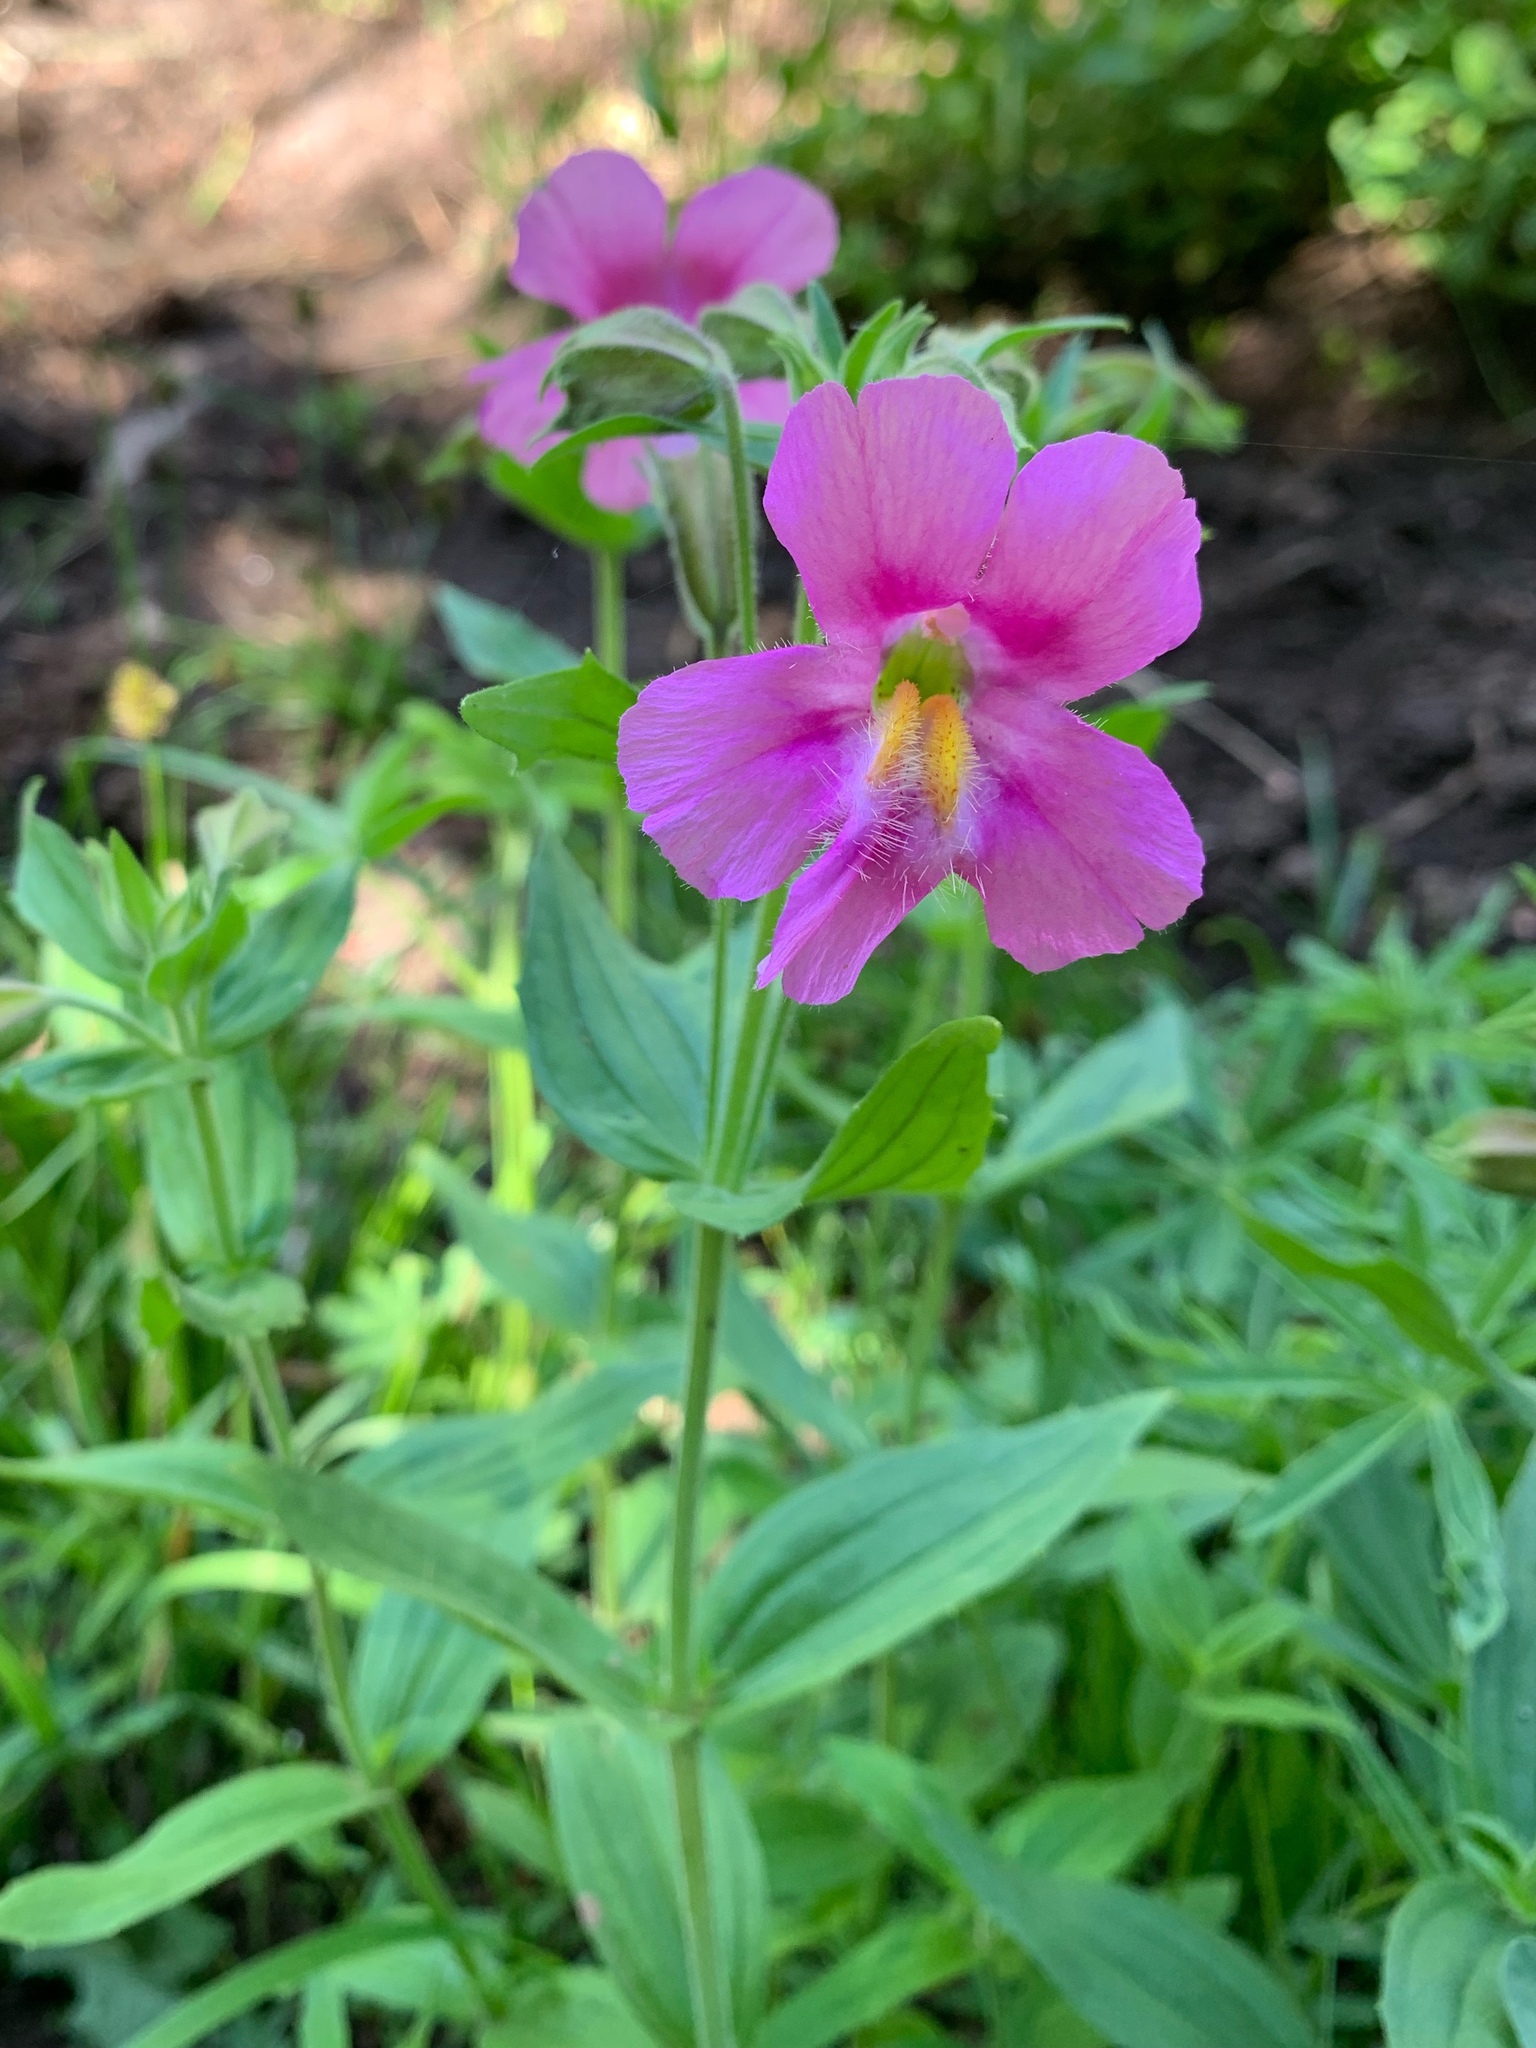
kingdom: Plantae
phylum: Tracheophyta
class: Magnoliopsida
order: Lamiales
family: Phrymaceae
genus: Erythranthe
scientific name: Erythranthe lewisii
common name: Lewis's monkey-flower
